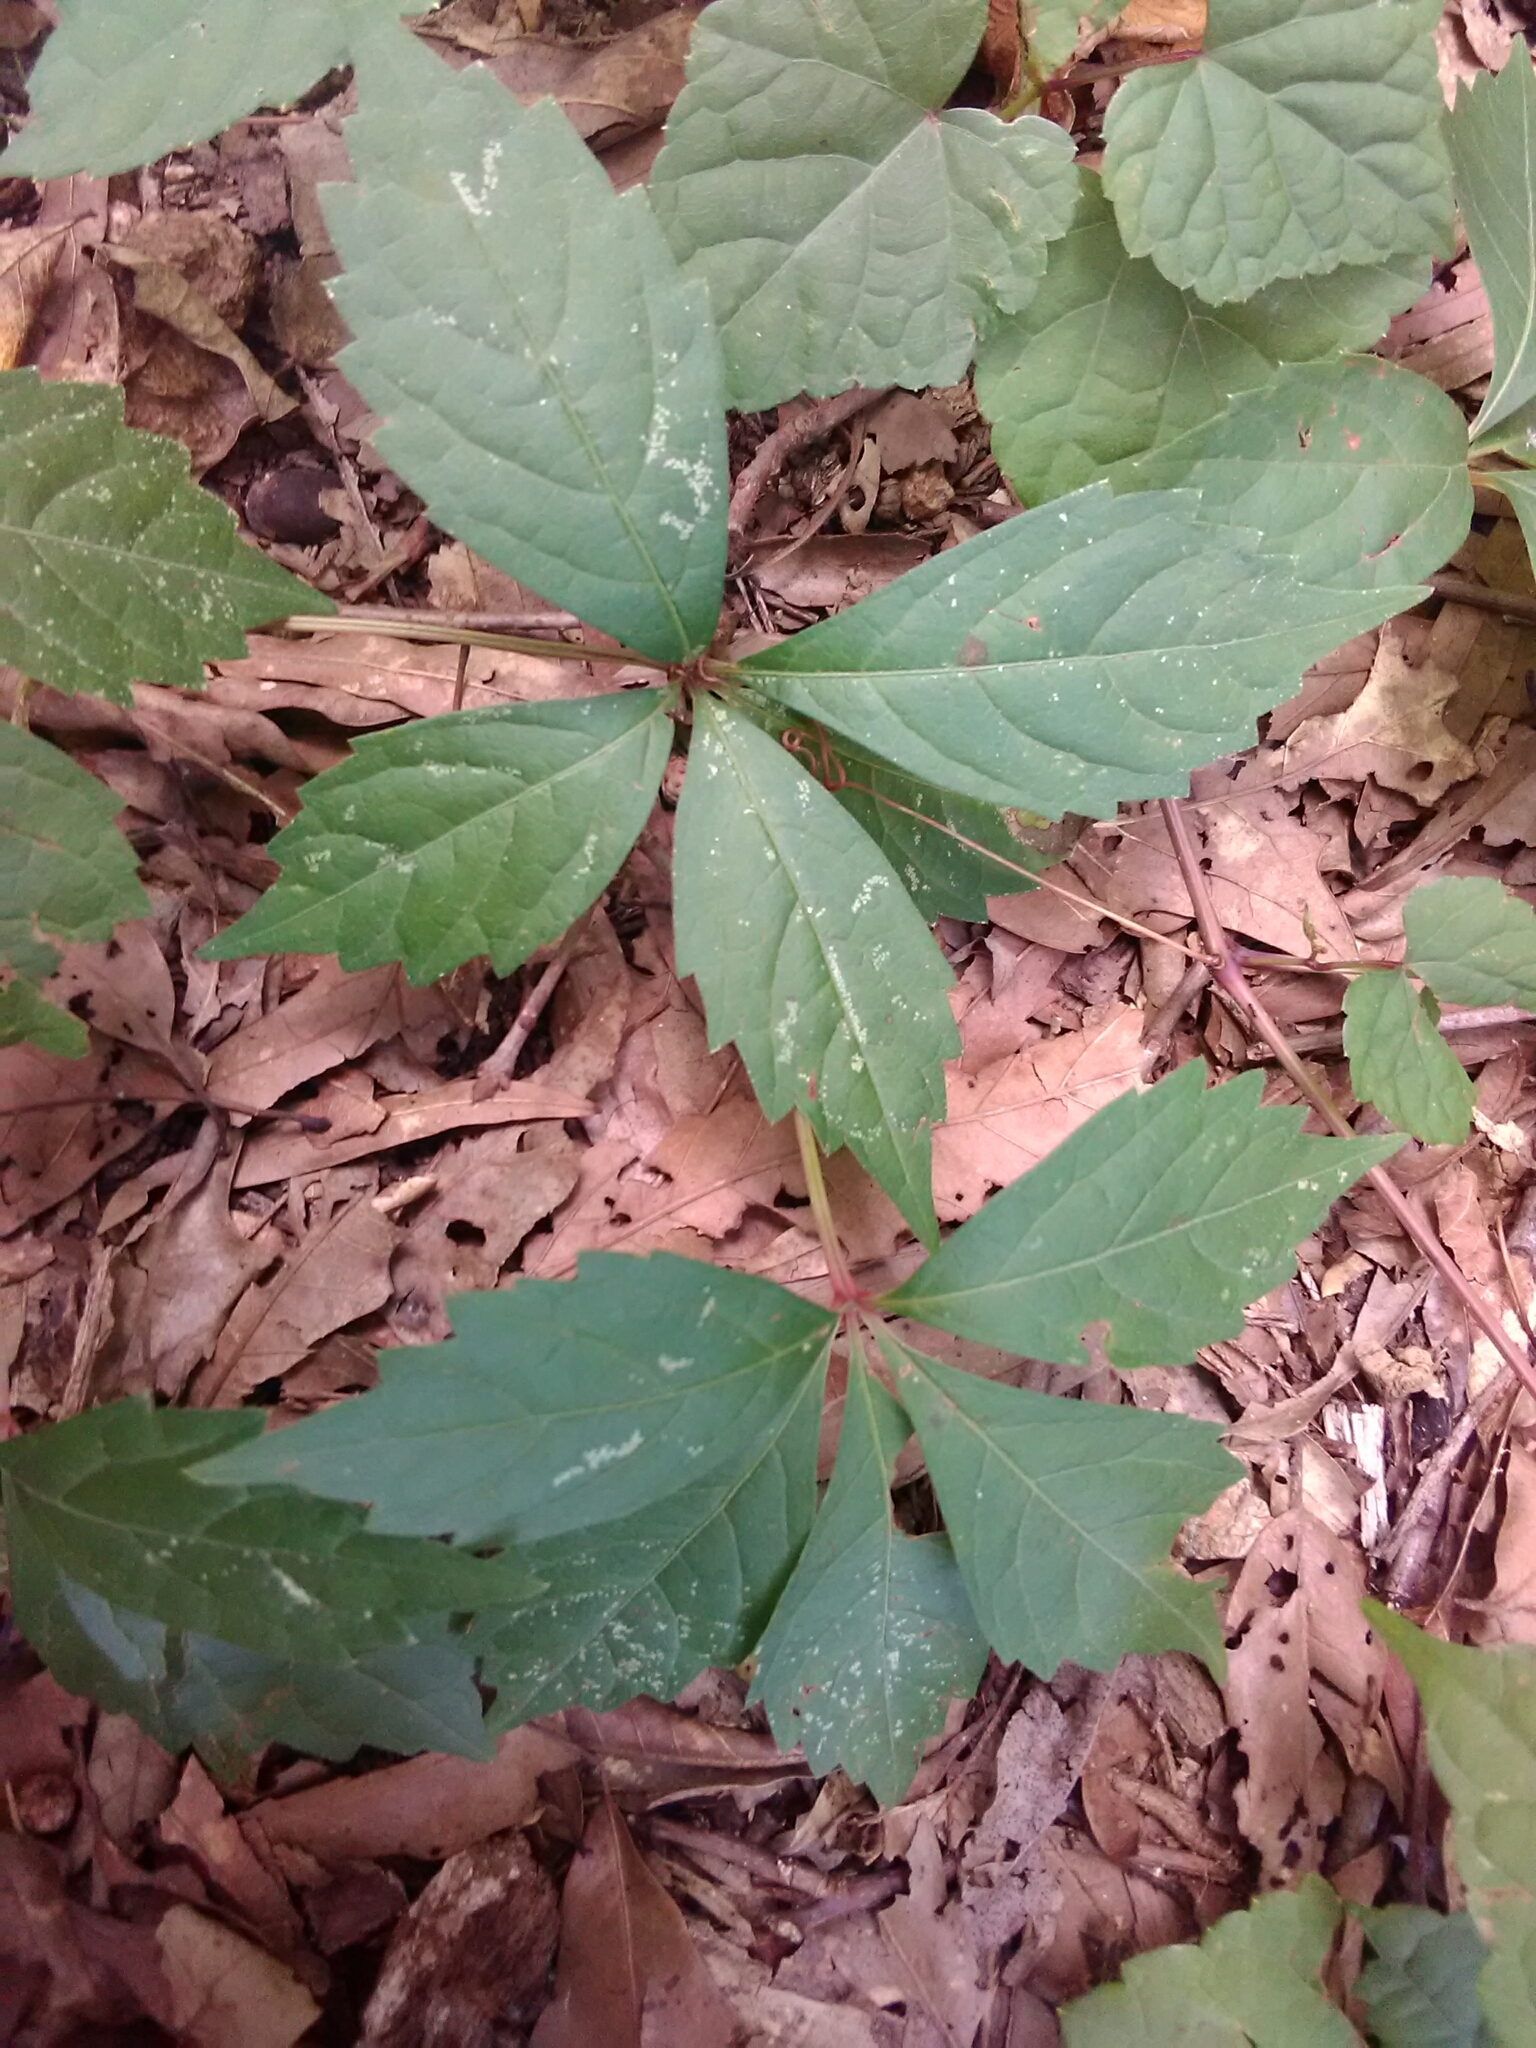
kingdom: Plantae
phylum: Tracheophyta
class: Magnoliopsida
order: Vitales
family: Vitaceae
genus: Parthenocissus
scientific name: Parthenocissus quinquefolia
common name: Virginia-creeper
